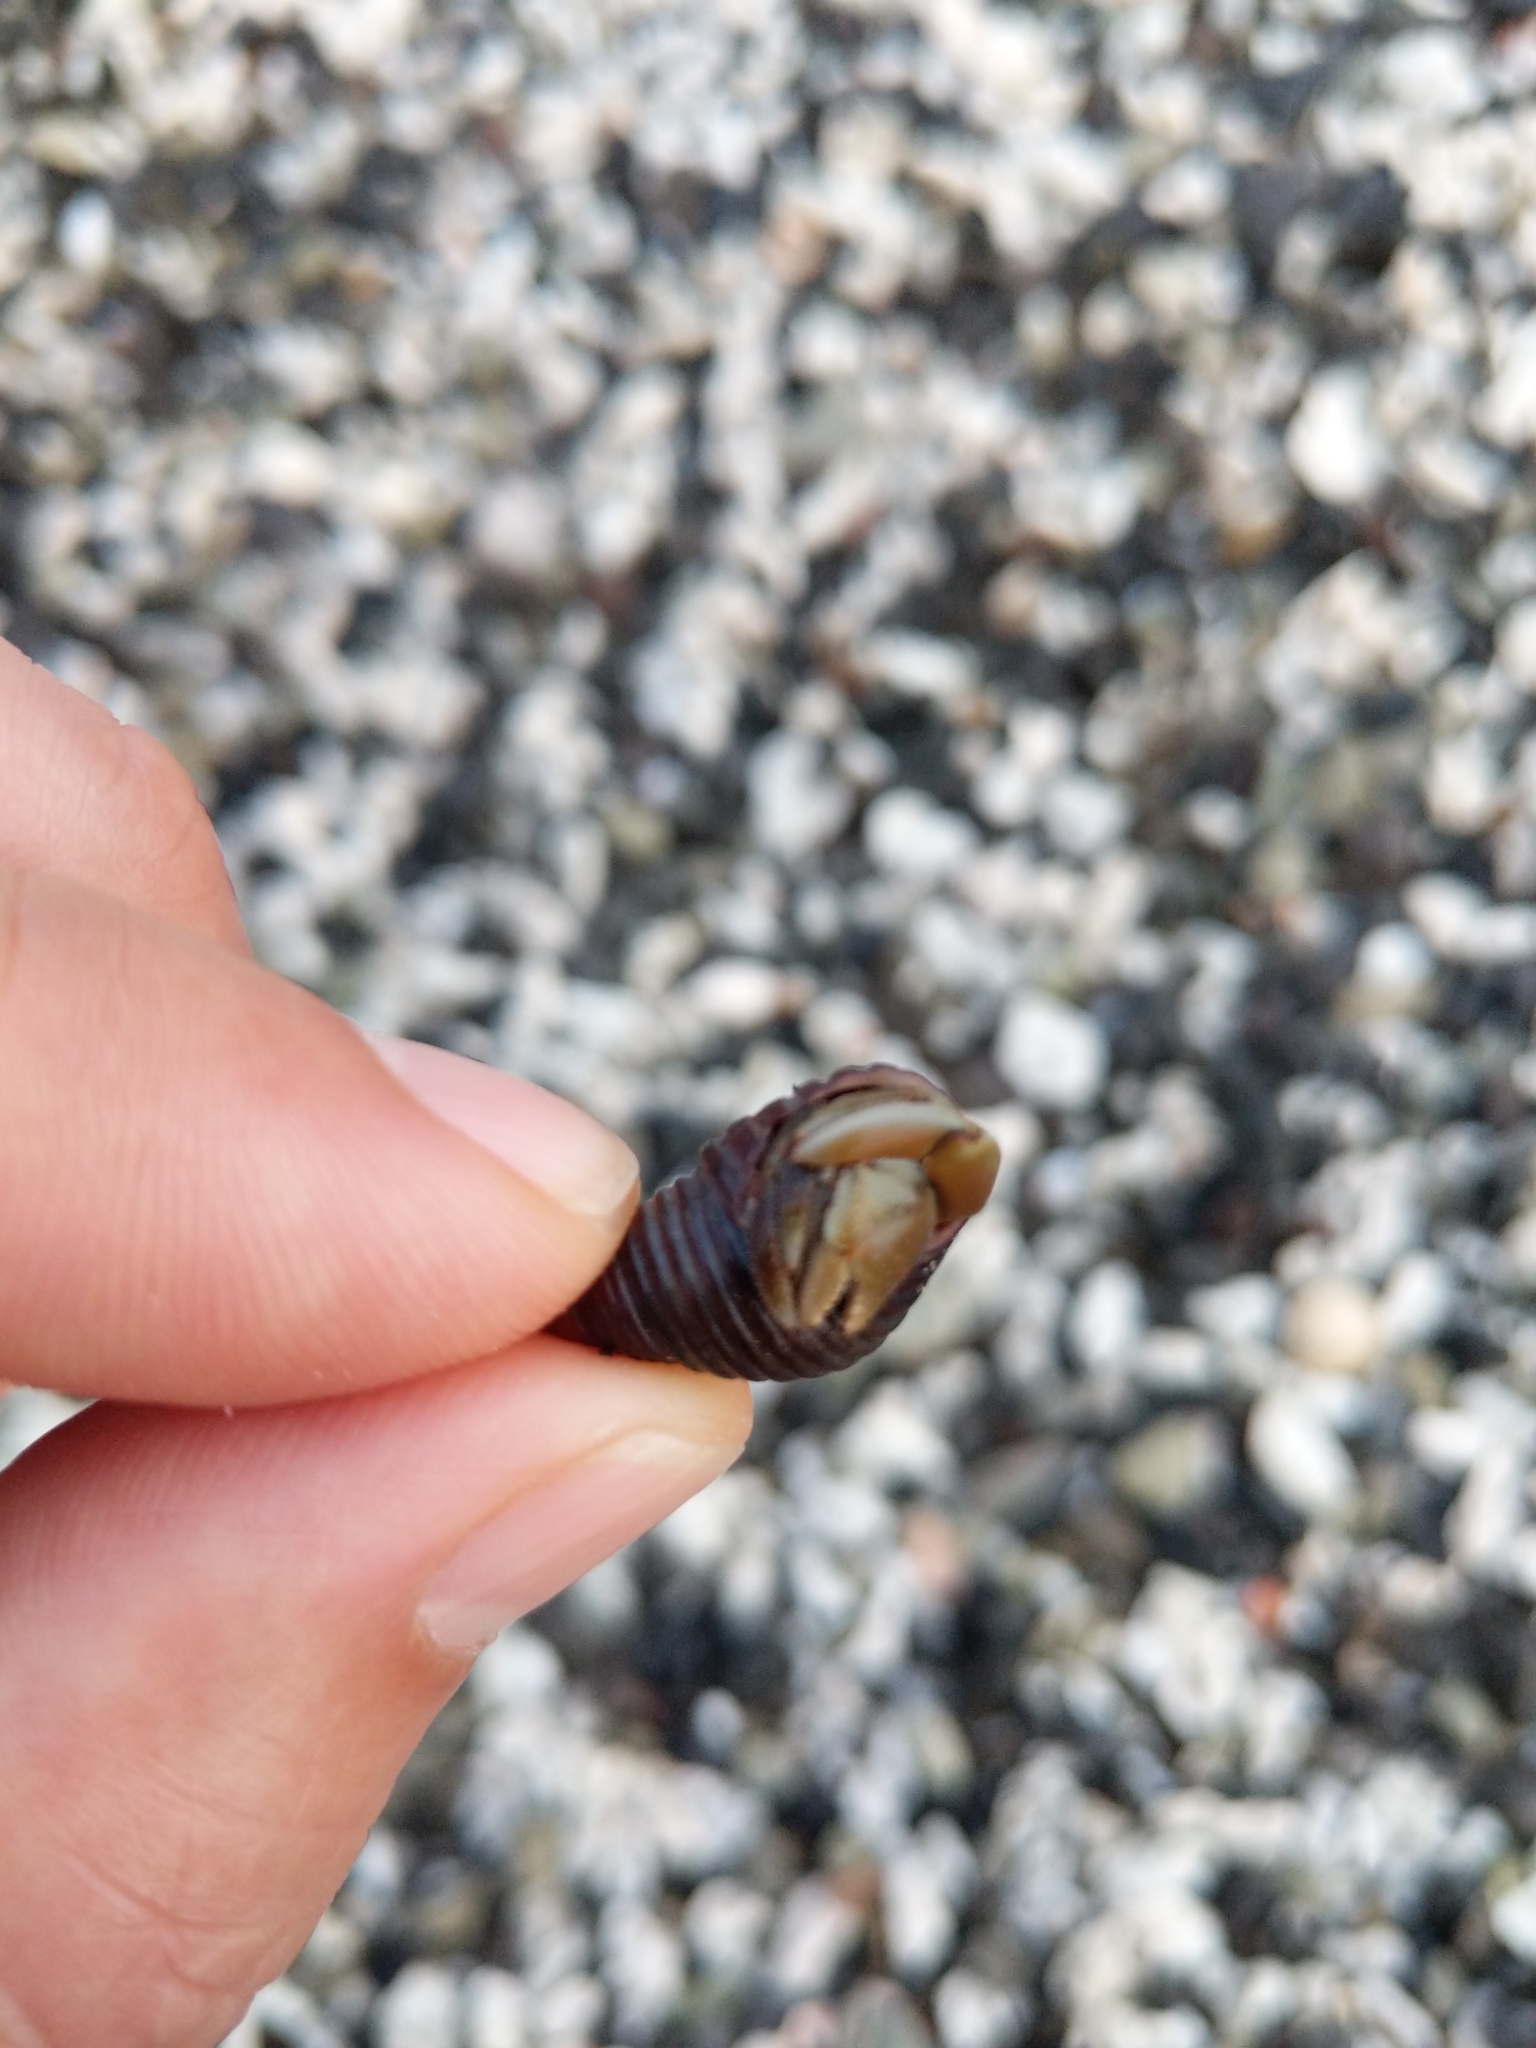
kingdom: Animalia
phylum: Arthropoda
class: Malacostraca
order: Decapoda
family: Coenobitidae
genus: Coenobita
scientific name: Coenobita compressus
